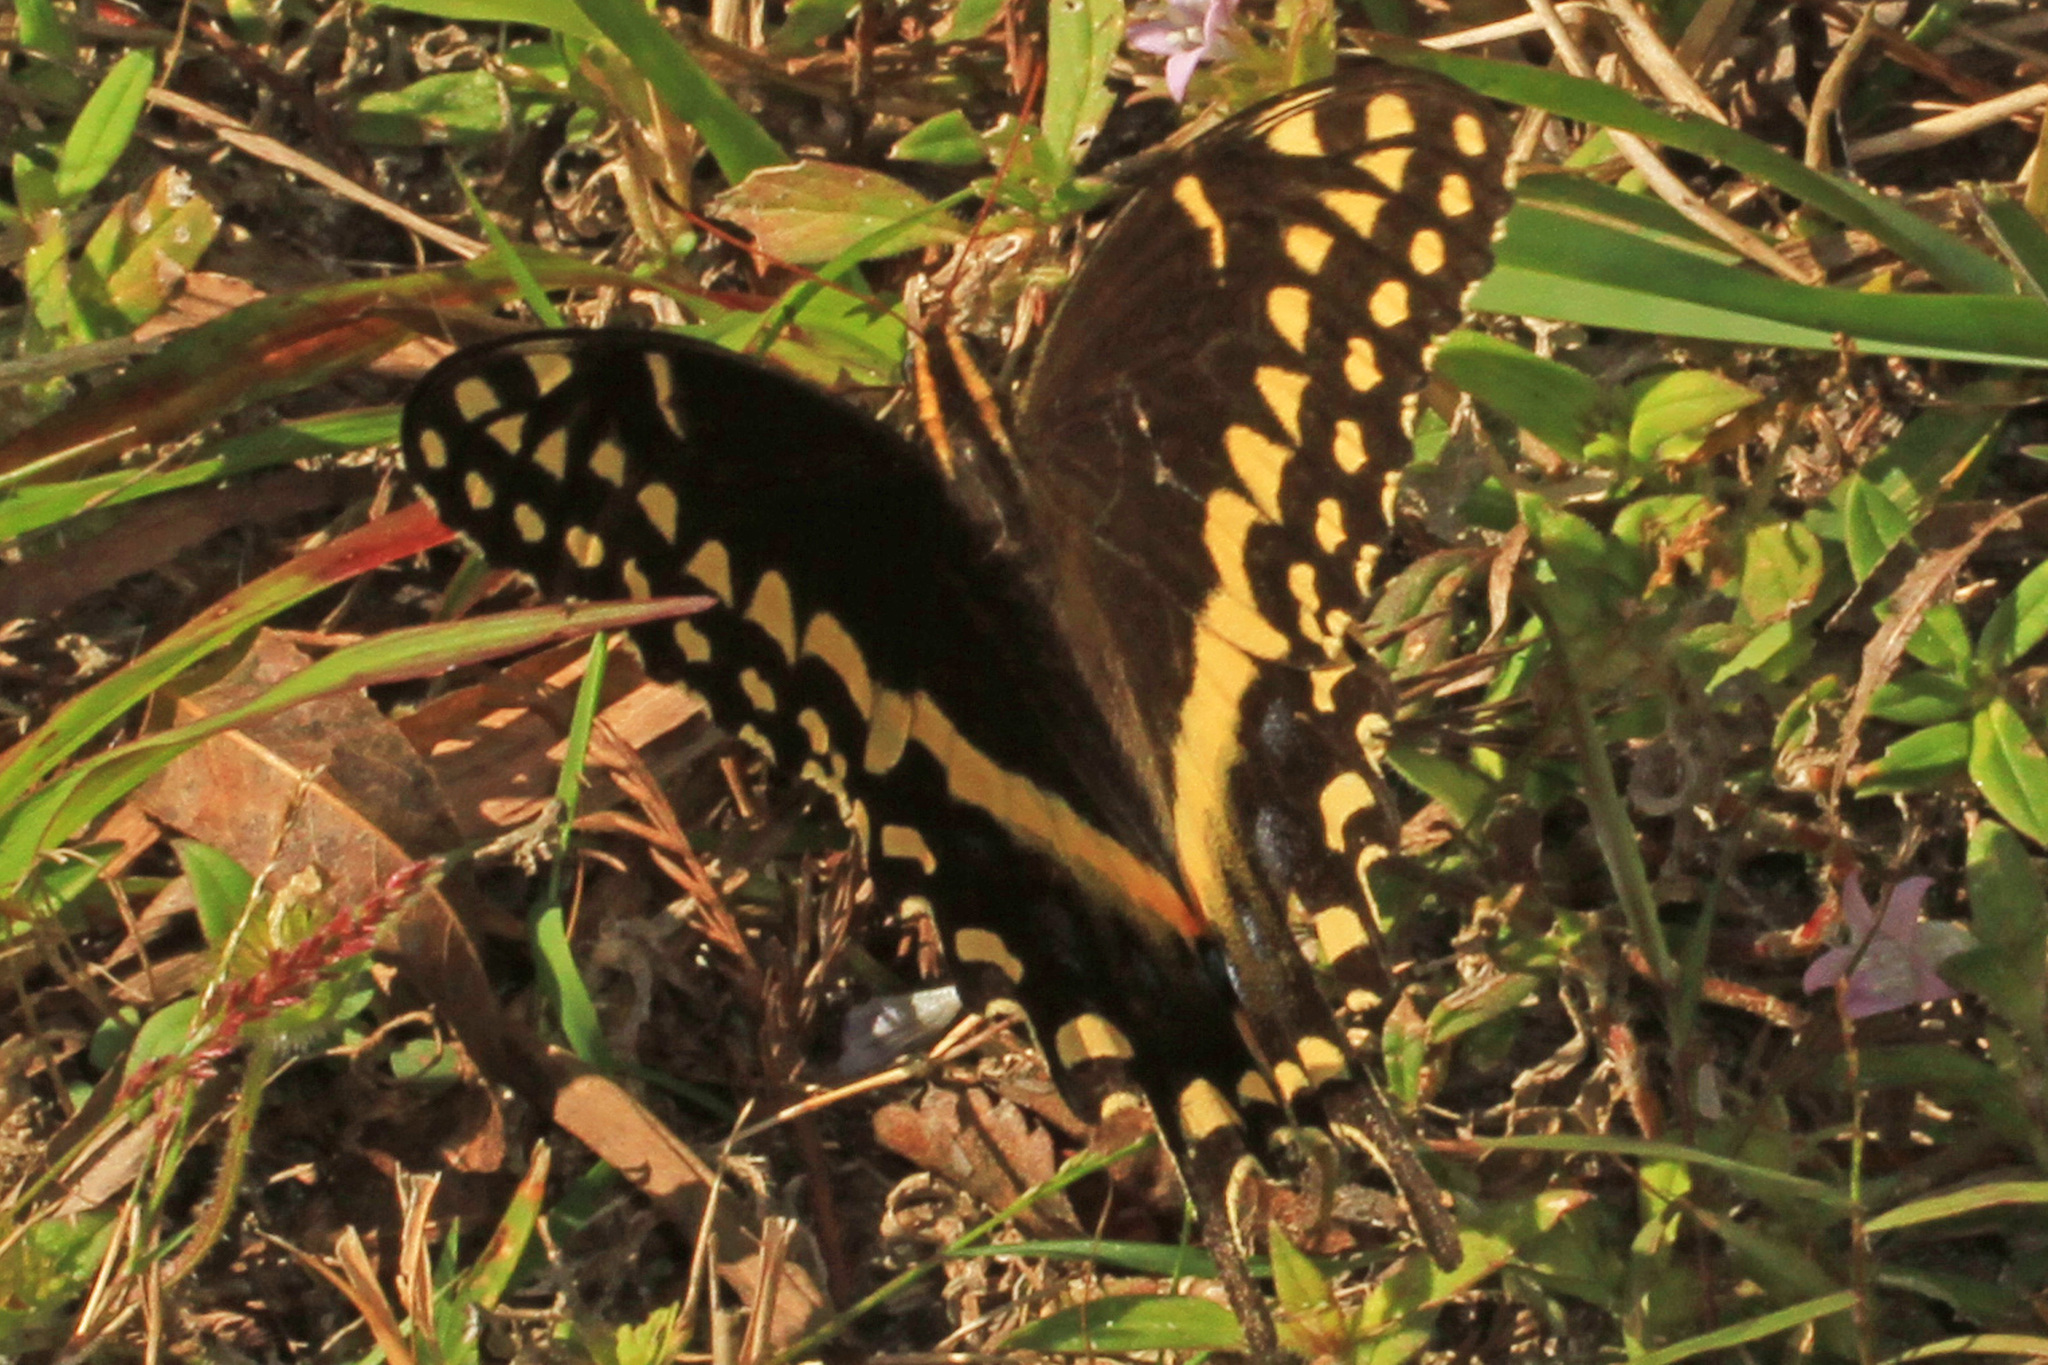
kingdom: Animalia
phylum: Arthropoda
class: Insecta
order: Lepidoptera
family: Papilionidae
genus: Papilio
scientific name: Papilio palamedes
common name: Palamedes swallowtail
